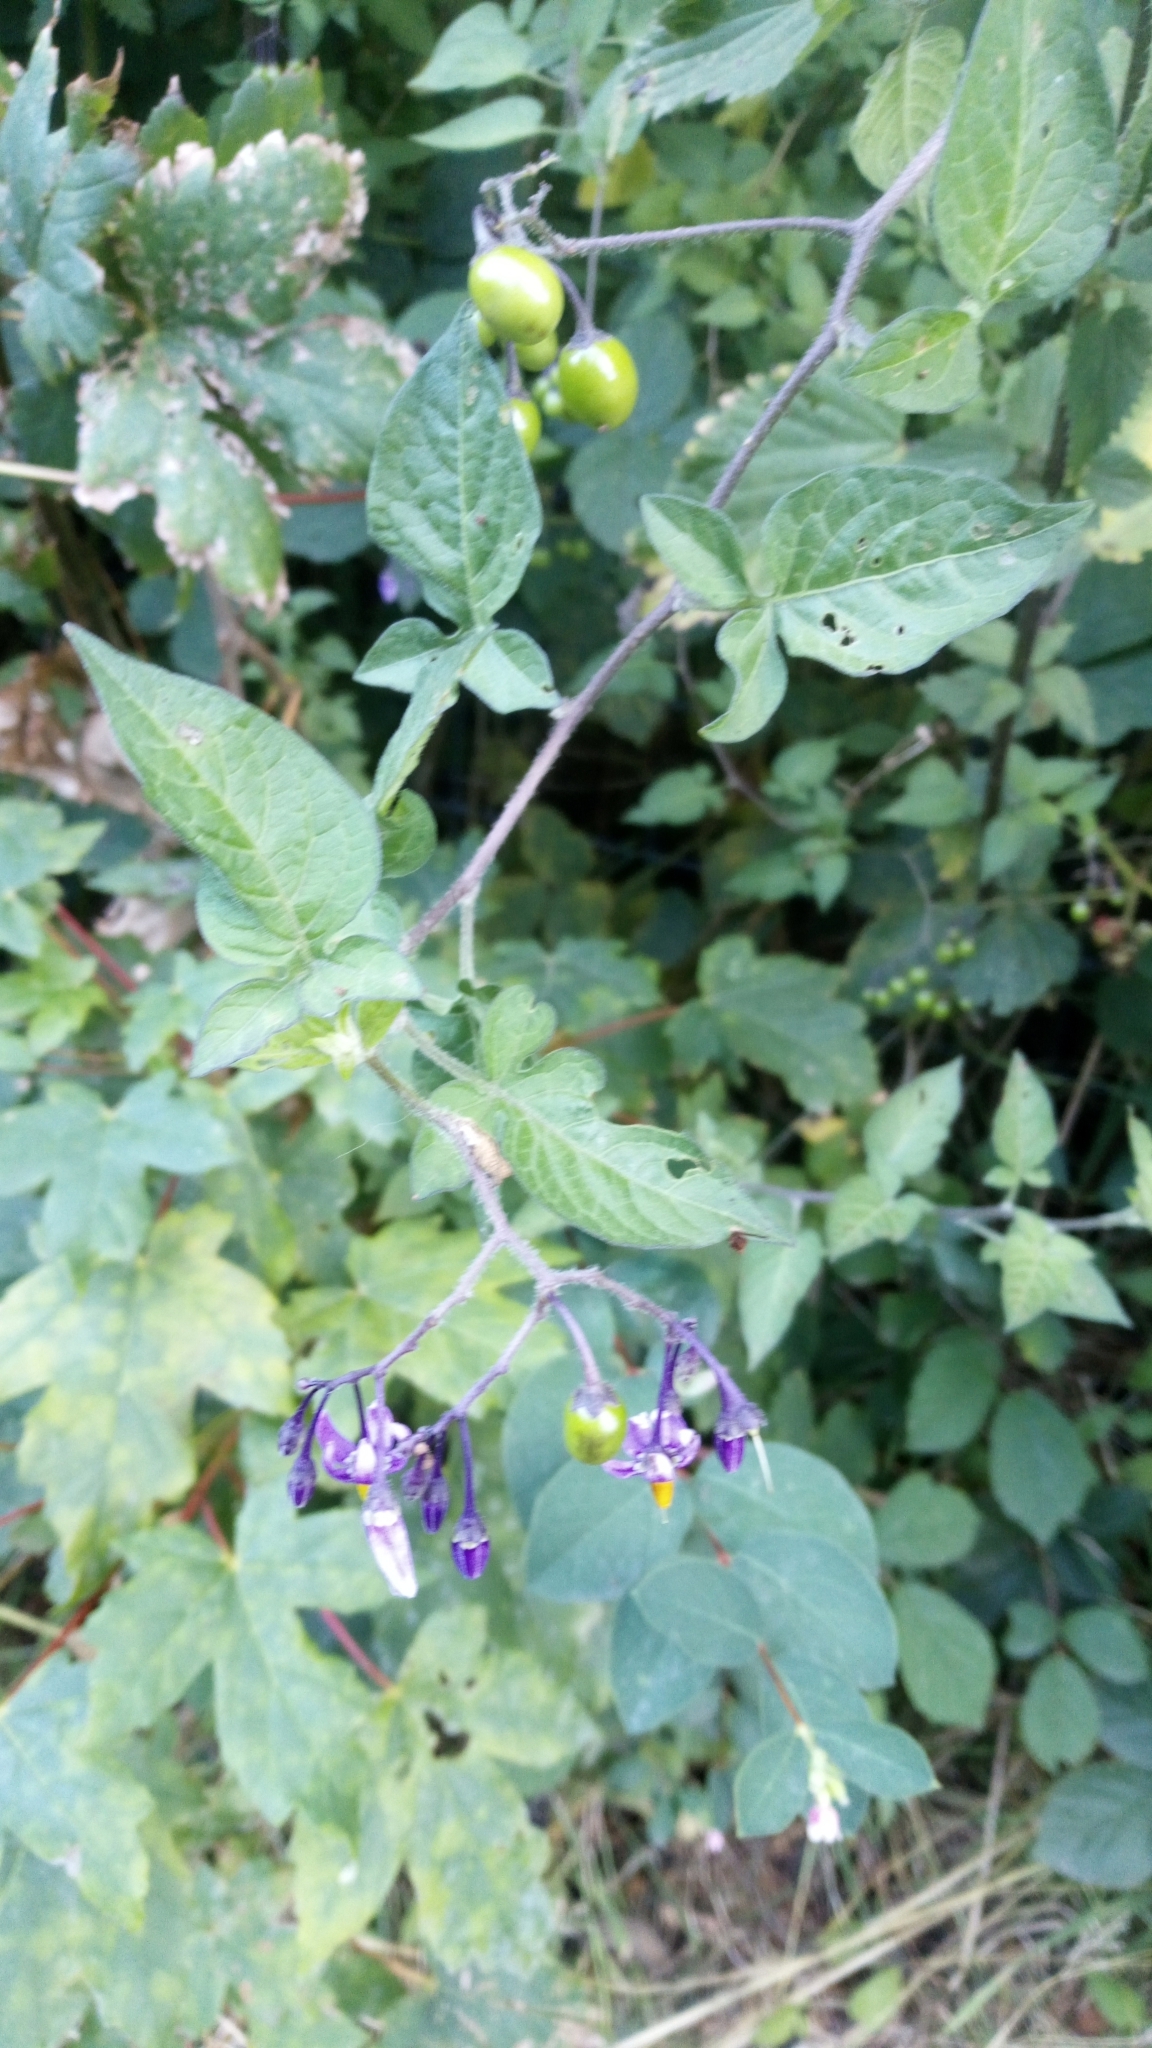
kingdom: Plantae
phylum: Tracheophyta
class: Magnoliopsida
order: Solanales
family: Solanaceae
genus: Solanum
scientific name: Solanum dulcamara
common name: Climbing nightshade
